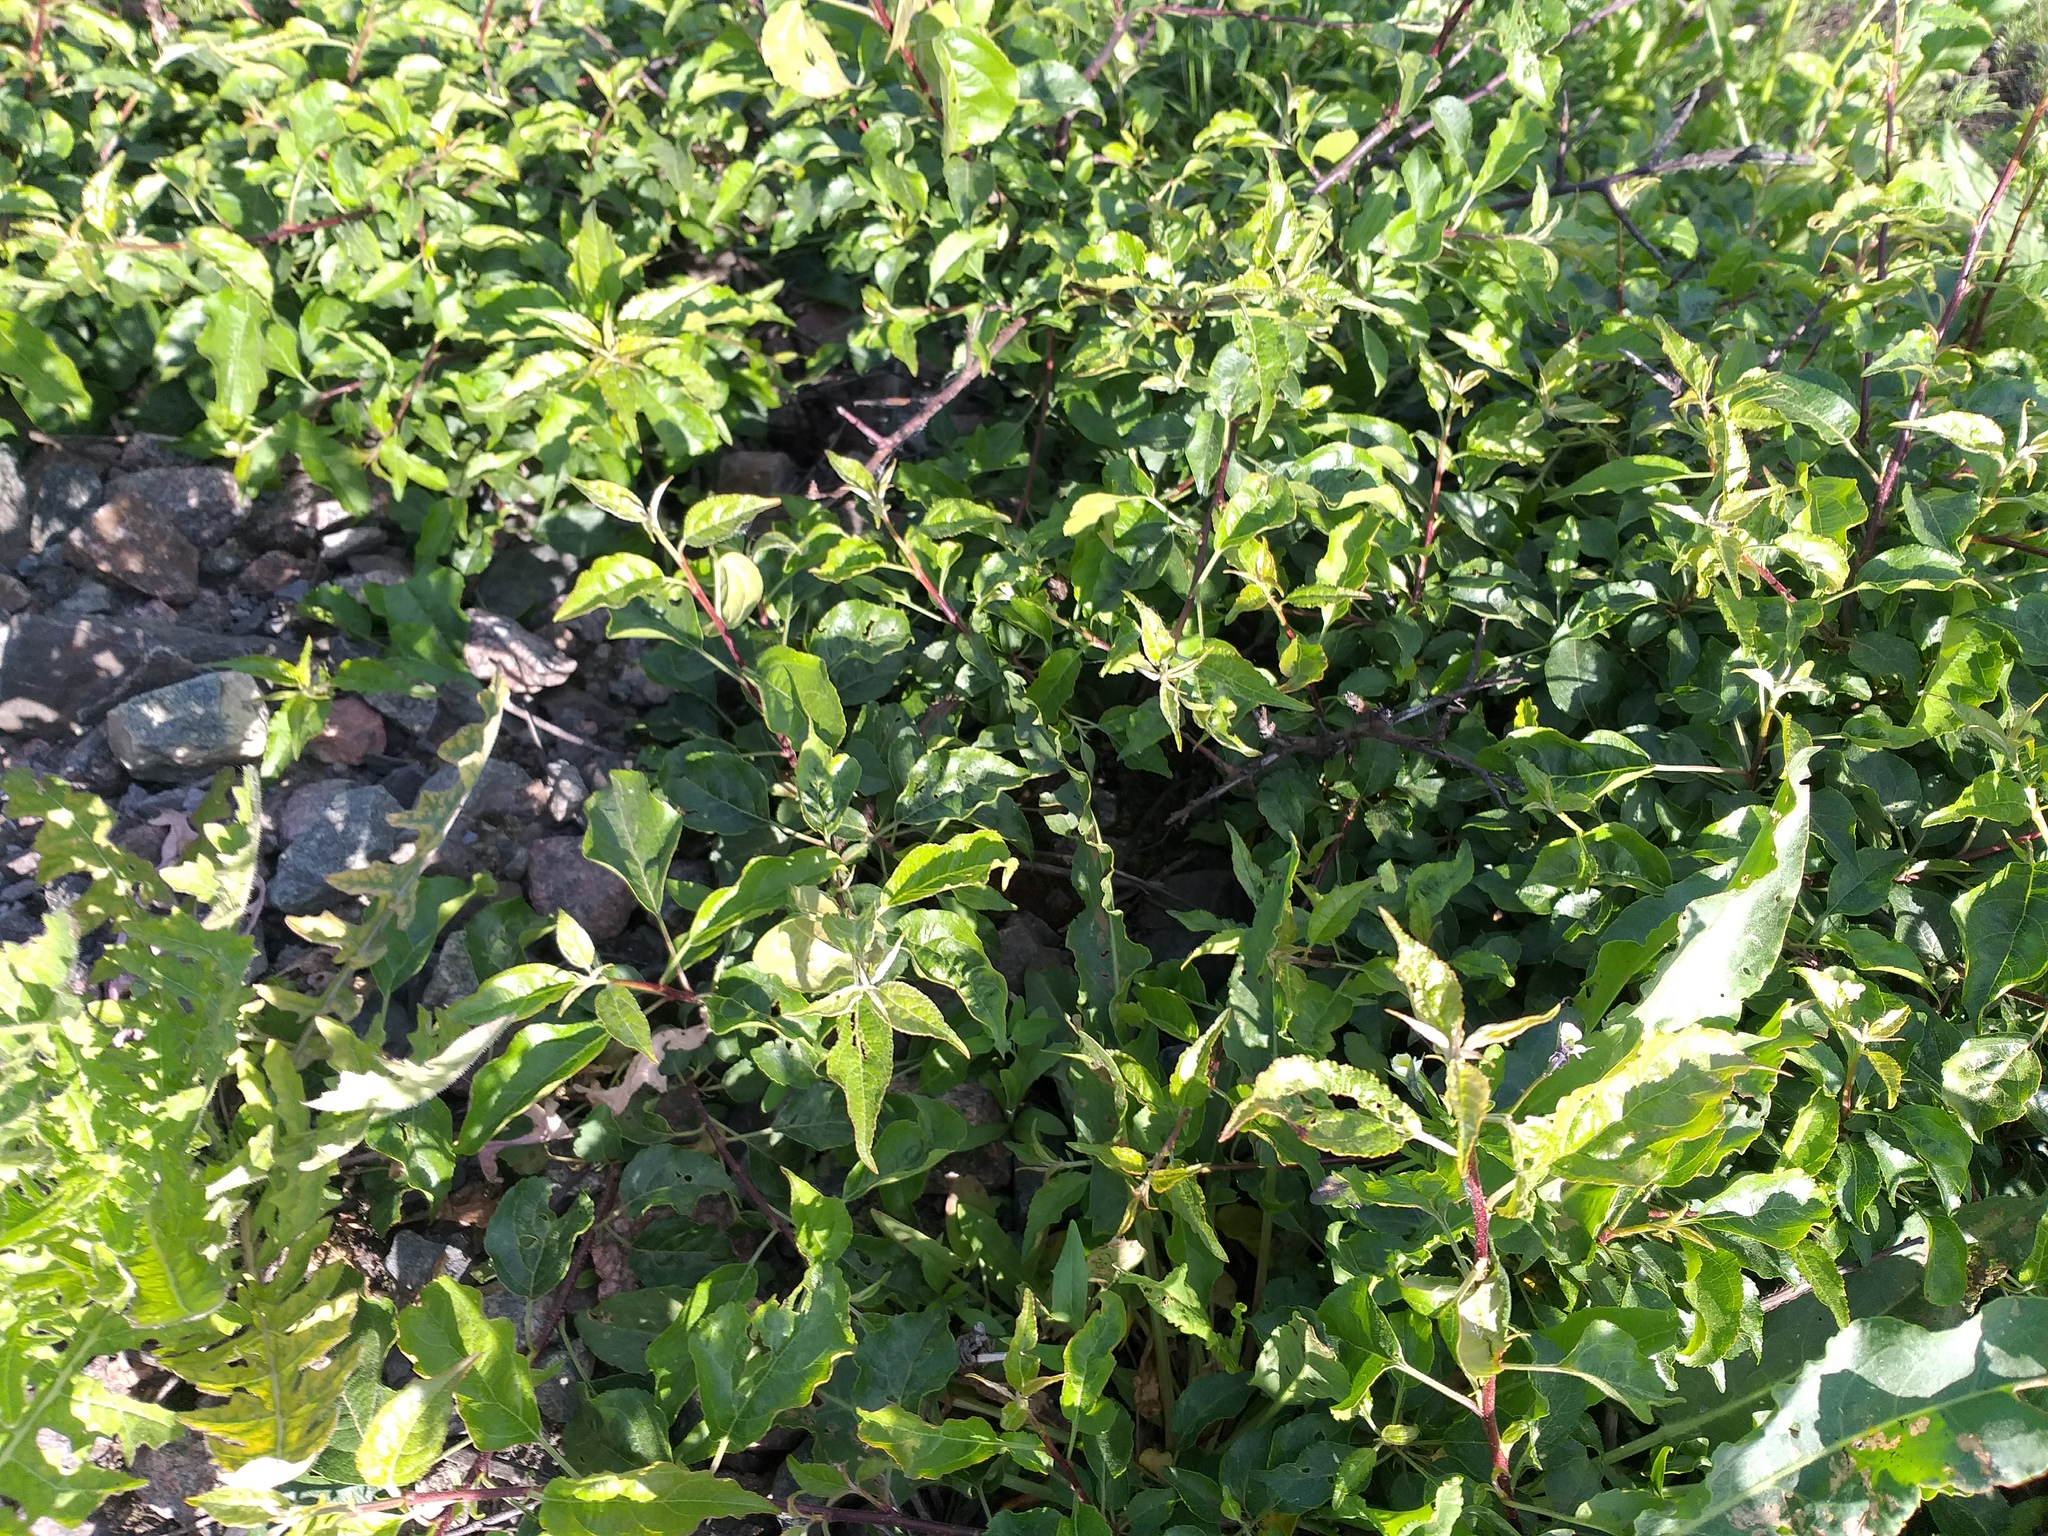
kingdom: Plantae
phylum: Tracheophyta
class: Magnoliopsida
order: Rosales
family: Rosaceae
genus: Malus
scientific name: Malus domestica
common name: Apple
